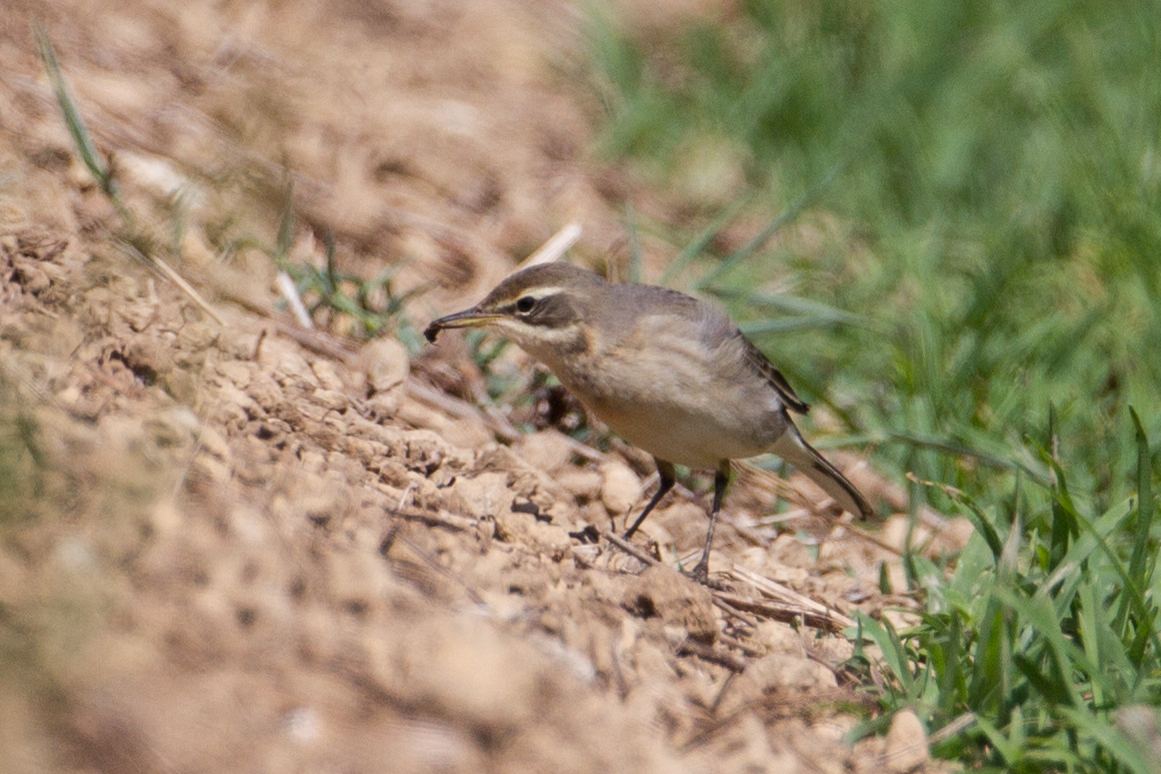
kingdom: Animalia
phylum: Chordata
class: Aves
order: Passeriformes
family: Motacillidae
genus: Motacilla
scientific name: Motacilla tschutschensis
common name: Eastern yellow wagtail
